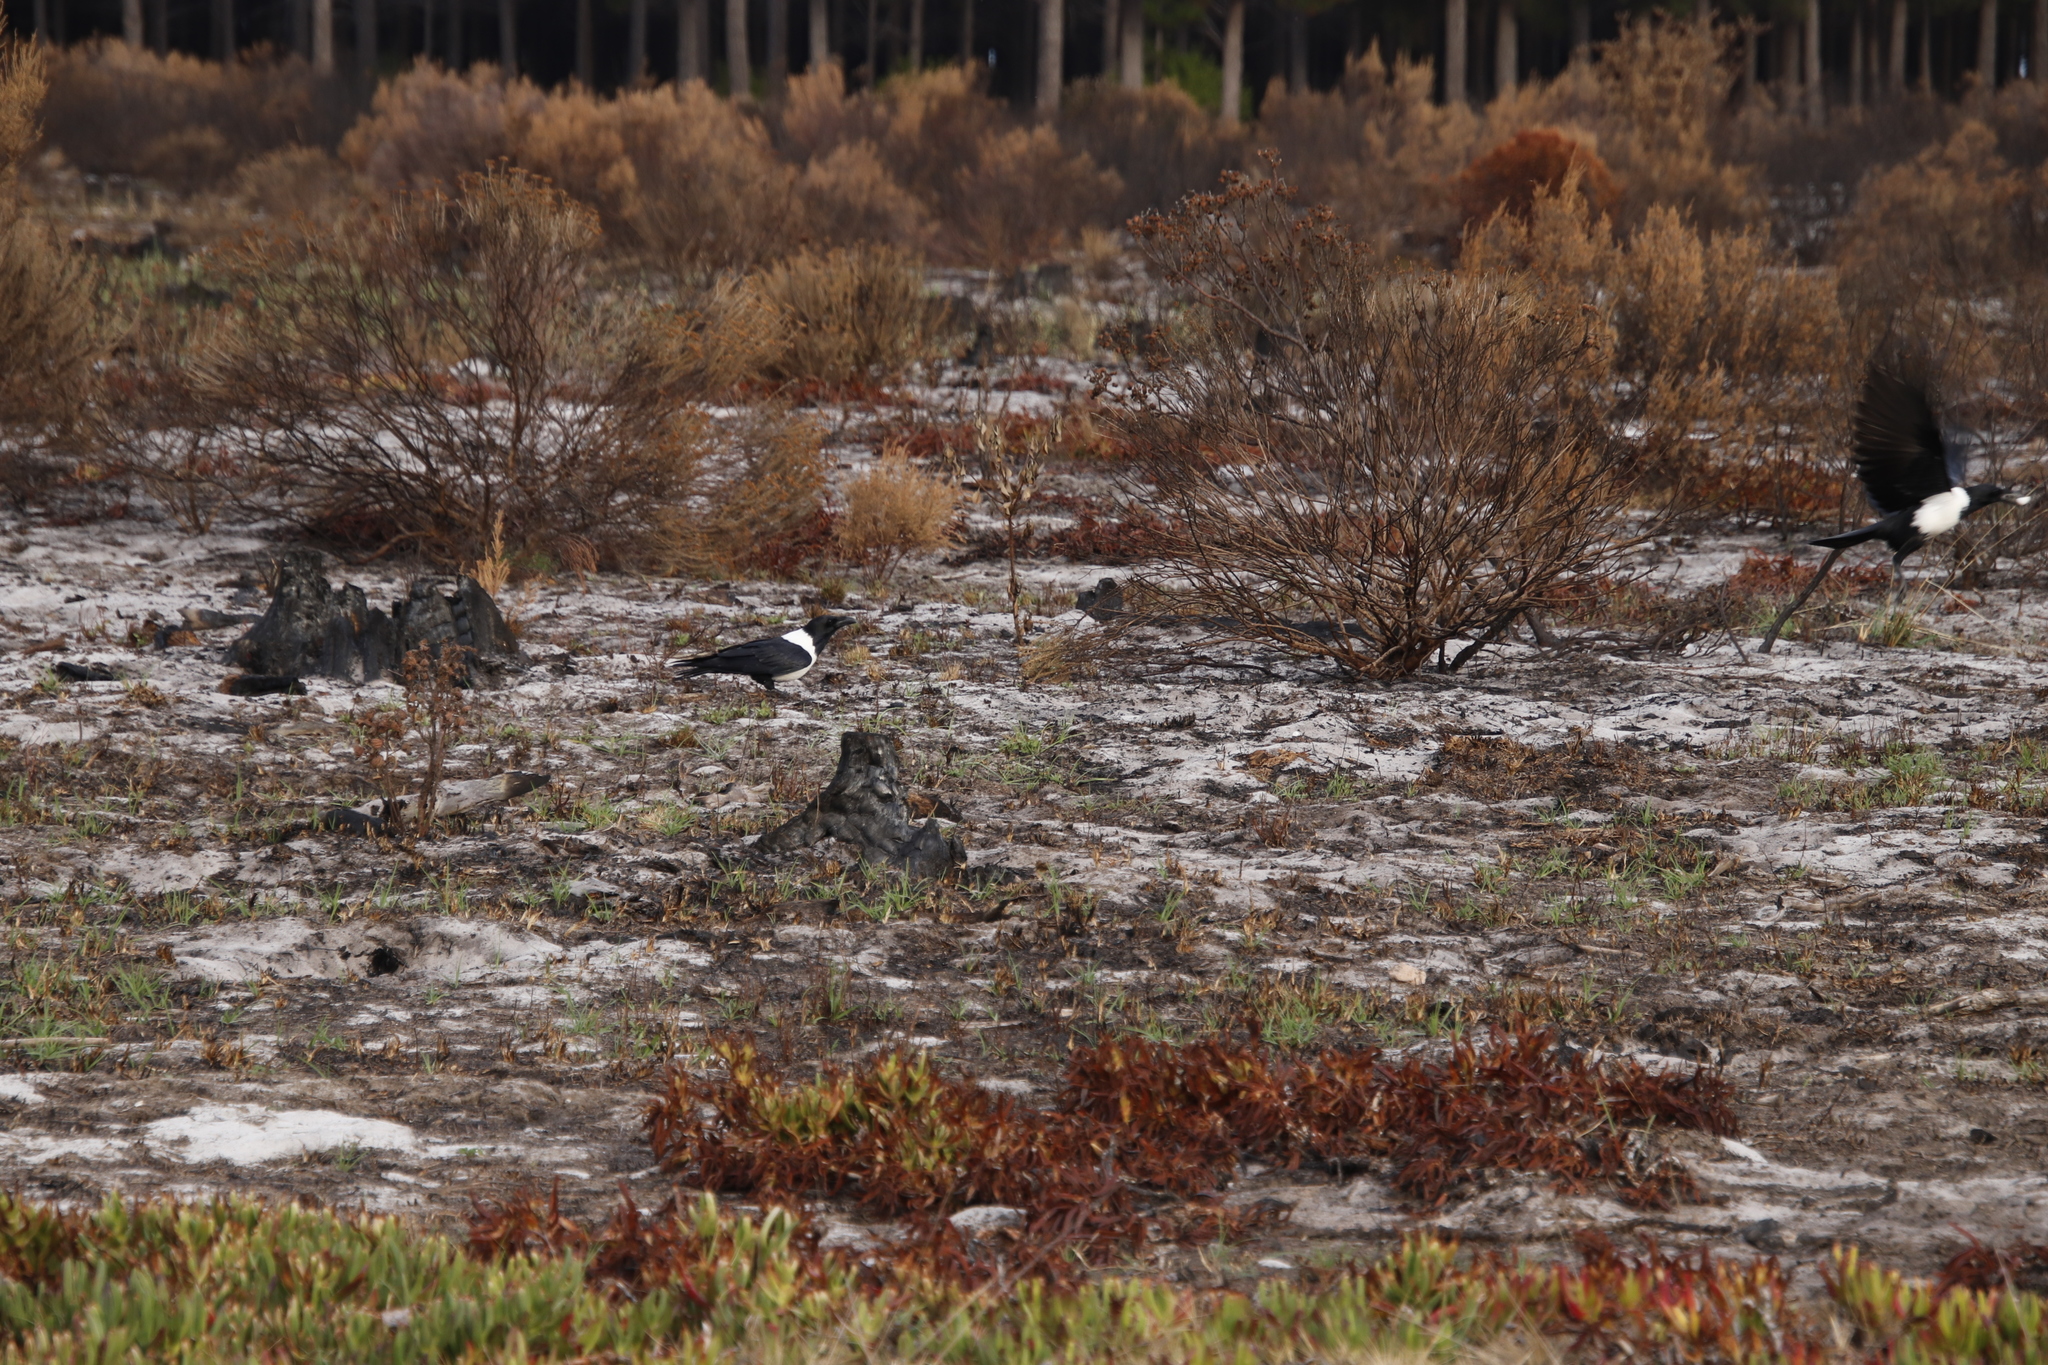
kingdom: Animalia
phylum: Chordata
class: Aves
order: Passeriformes
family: Corvidae
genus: Corvus
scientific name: Corvus albus
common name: Pied crow
